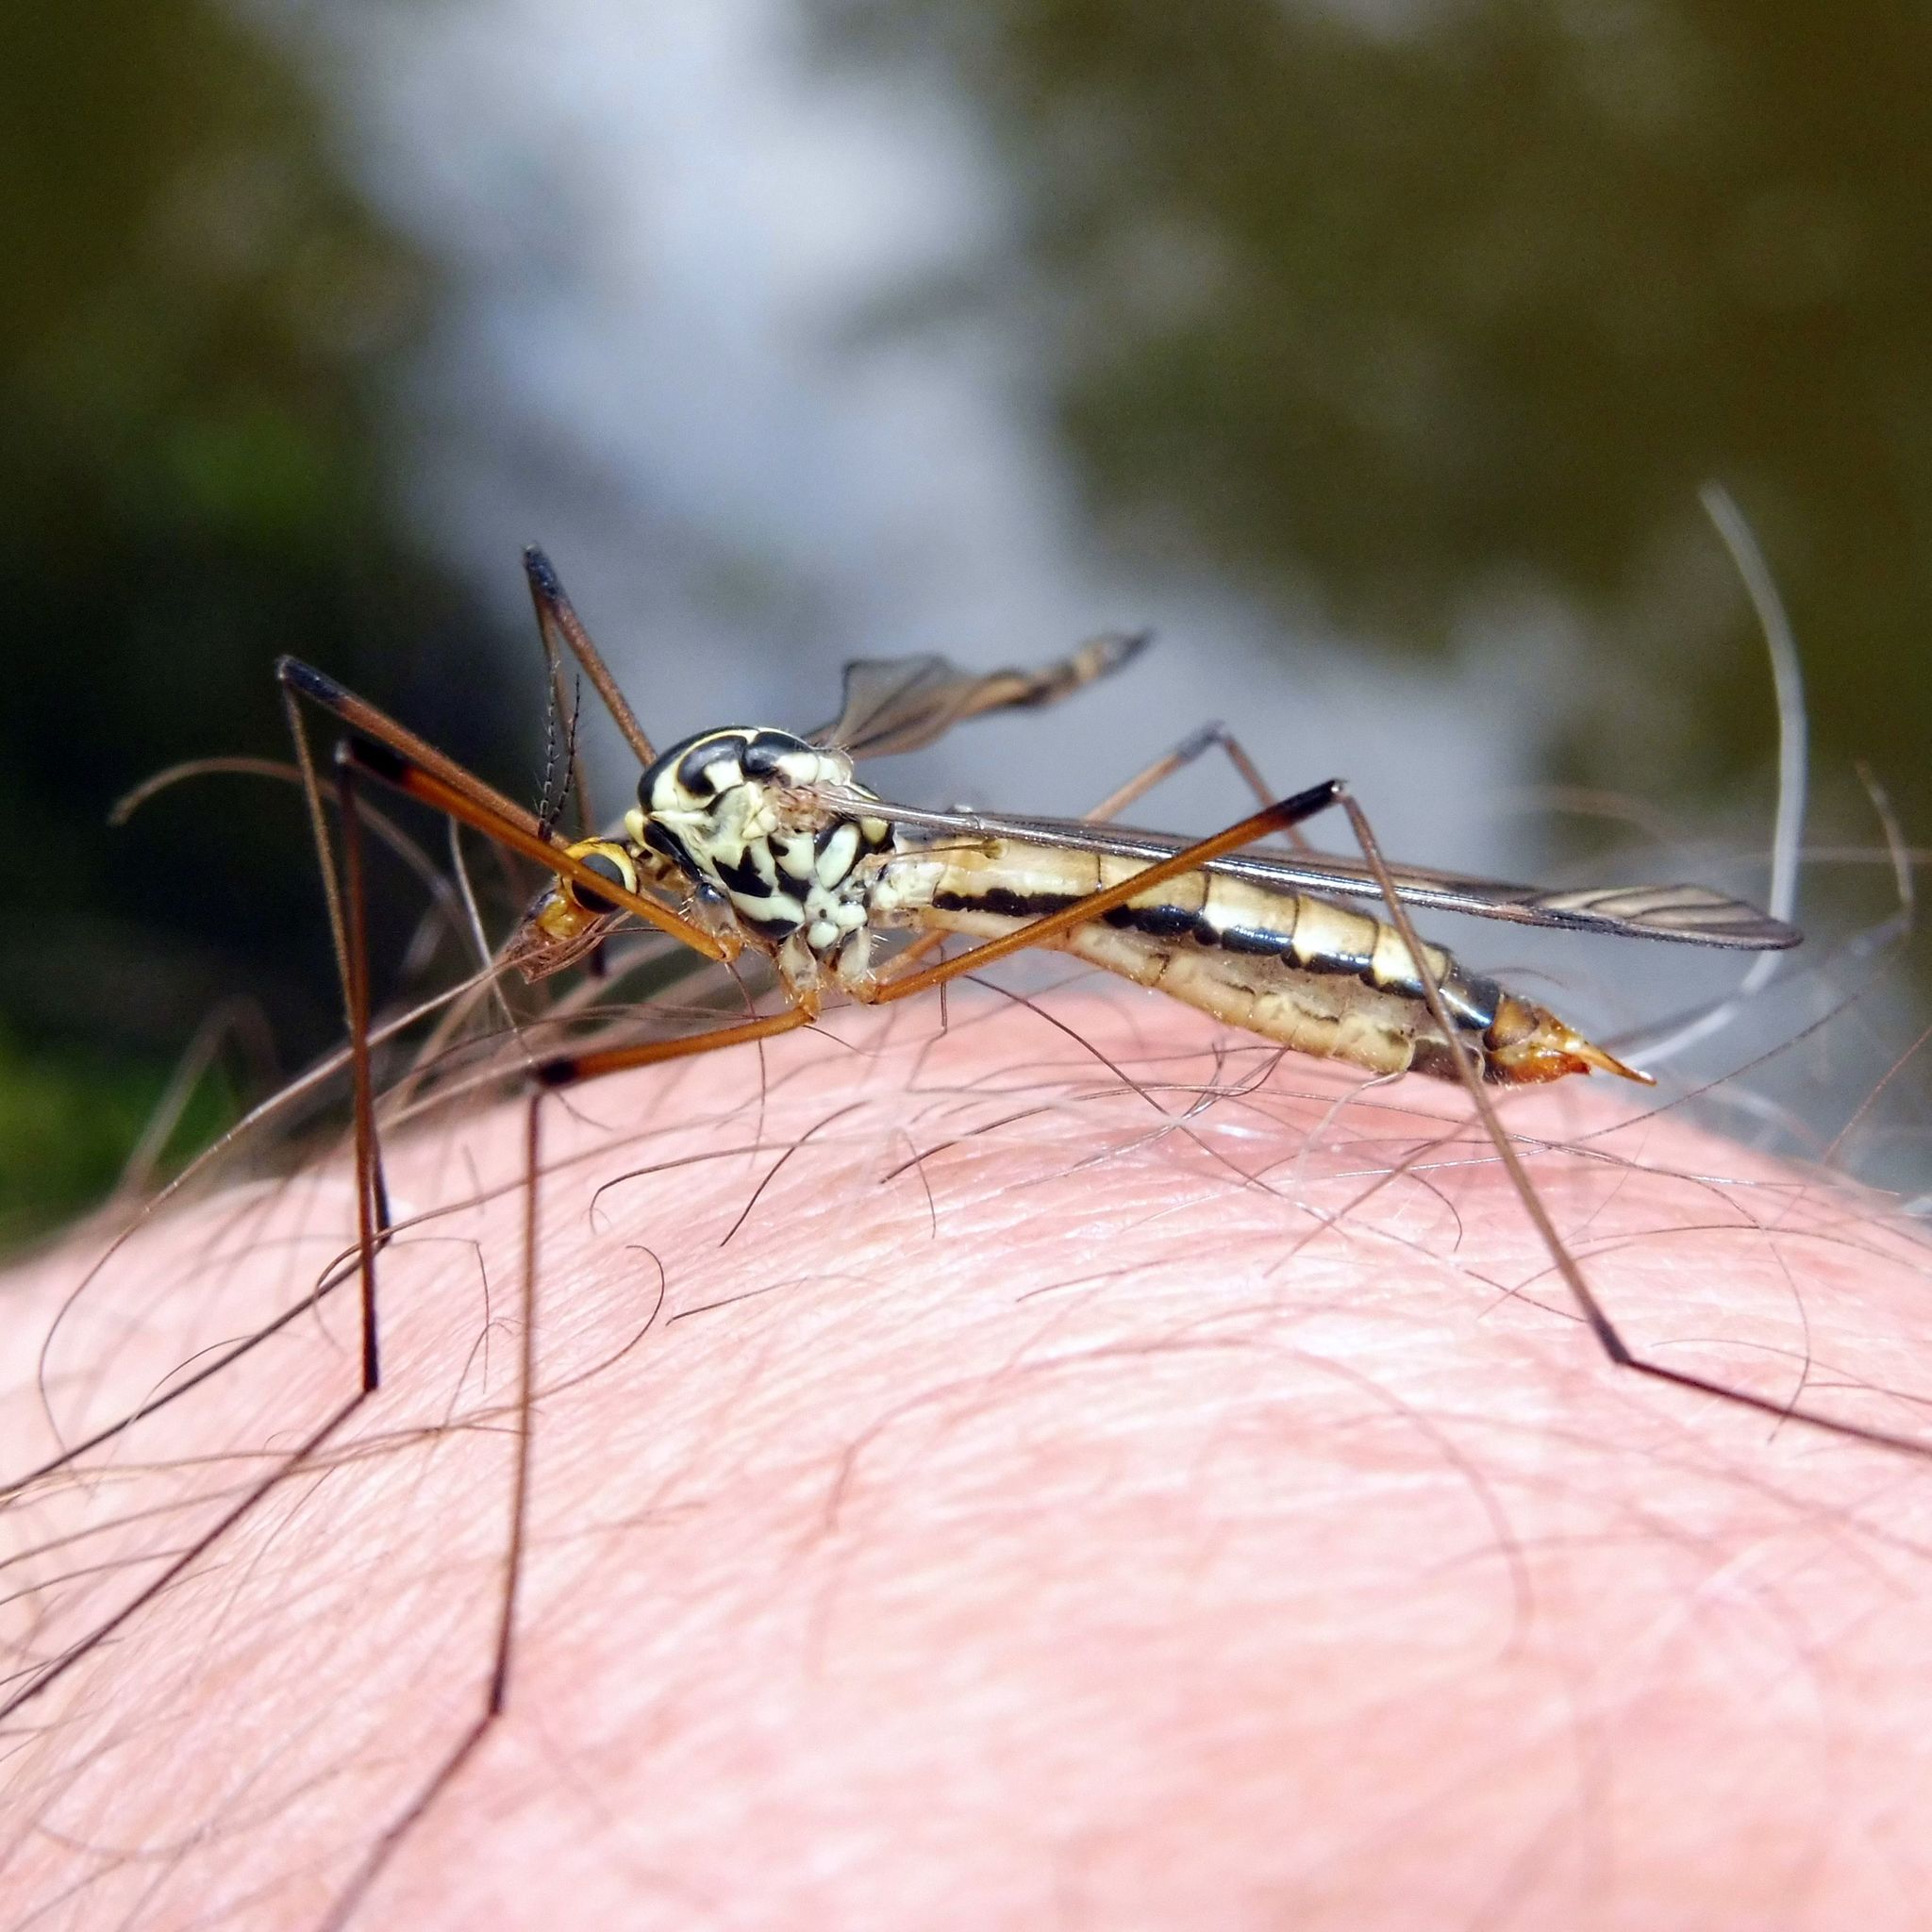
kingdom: Animalia
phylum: Arthropoda
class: Insecta
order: Diptera
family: Tipulidae
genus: Nephrotoma
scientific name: Nephrotoma quadrifaria
